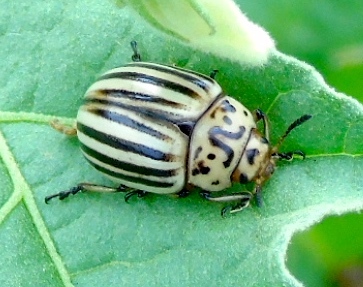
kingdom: Animalia
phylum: Arthropoda
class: Insecta
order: Coleoptera
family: Chrysomelidae
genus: Leptinotarsa
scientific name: Leptinotarsa
